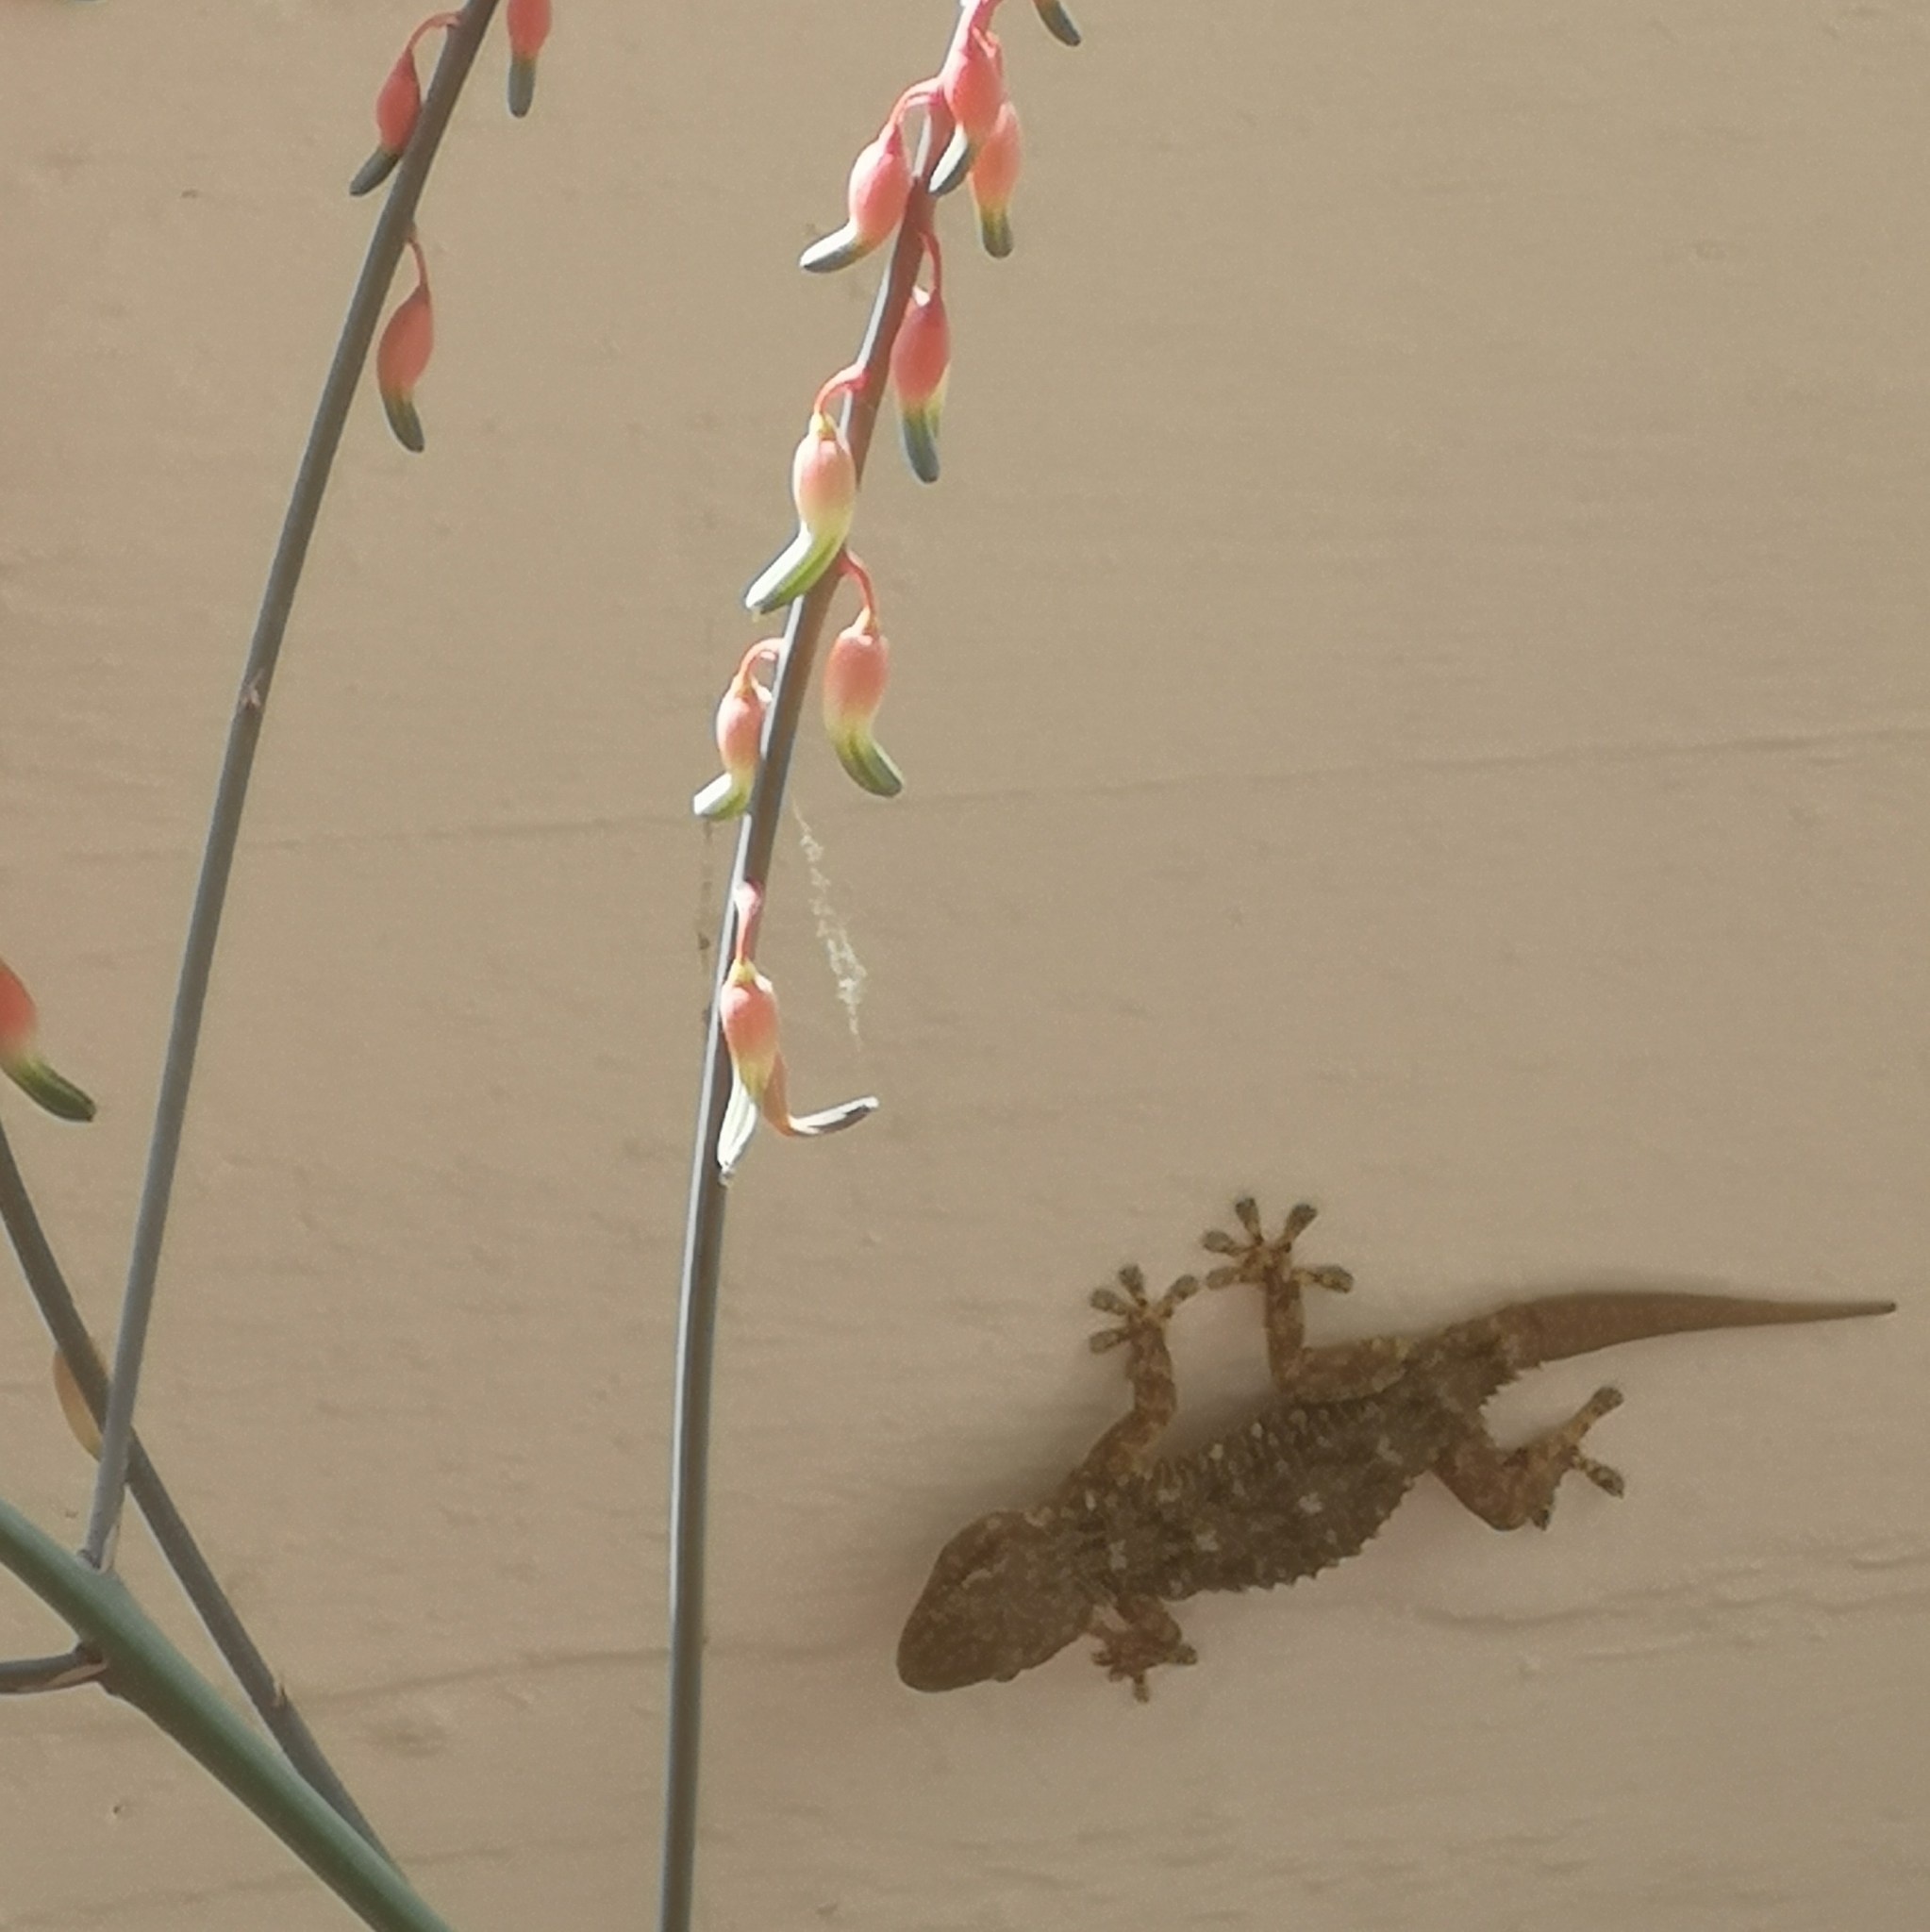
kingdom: Animalia
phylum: Chordata
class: Squamata
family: Phyllodactylidae
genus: Tarentola
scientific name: Tarentola mauritanica
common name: Moorish gecko
